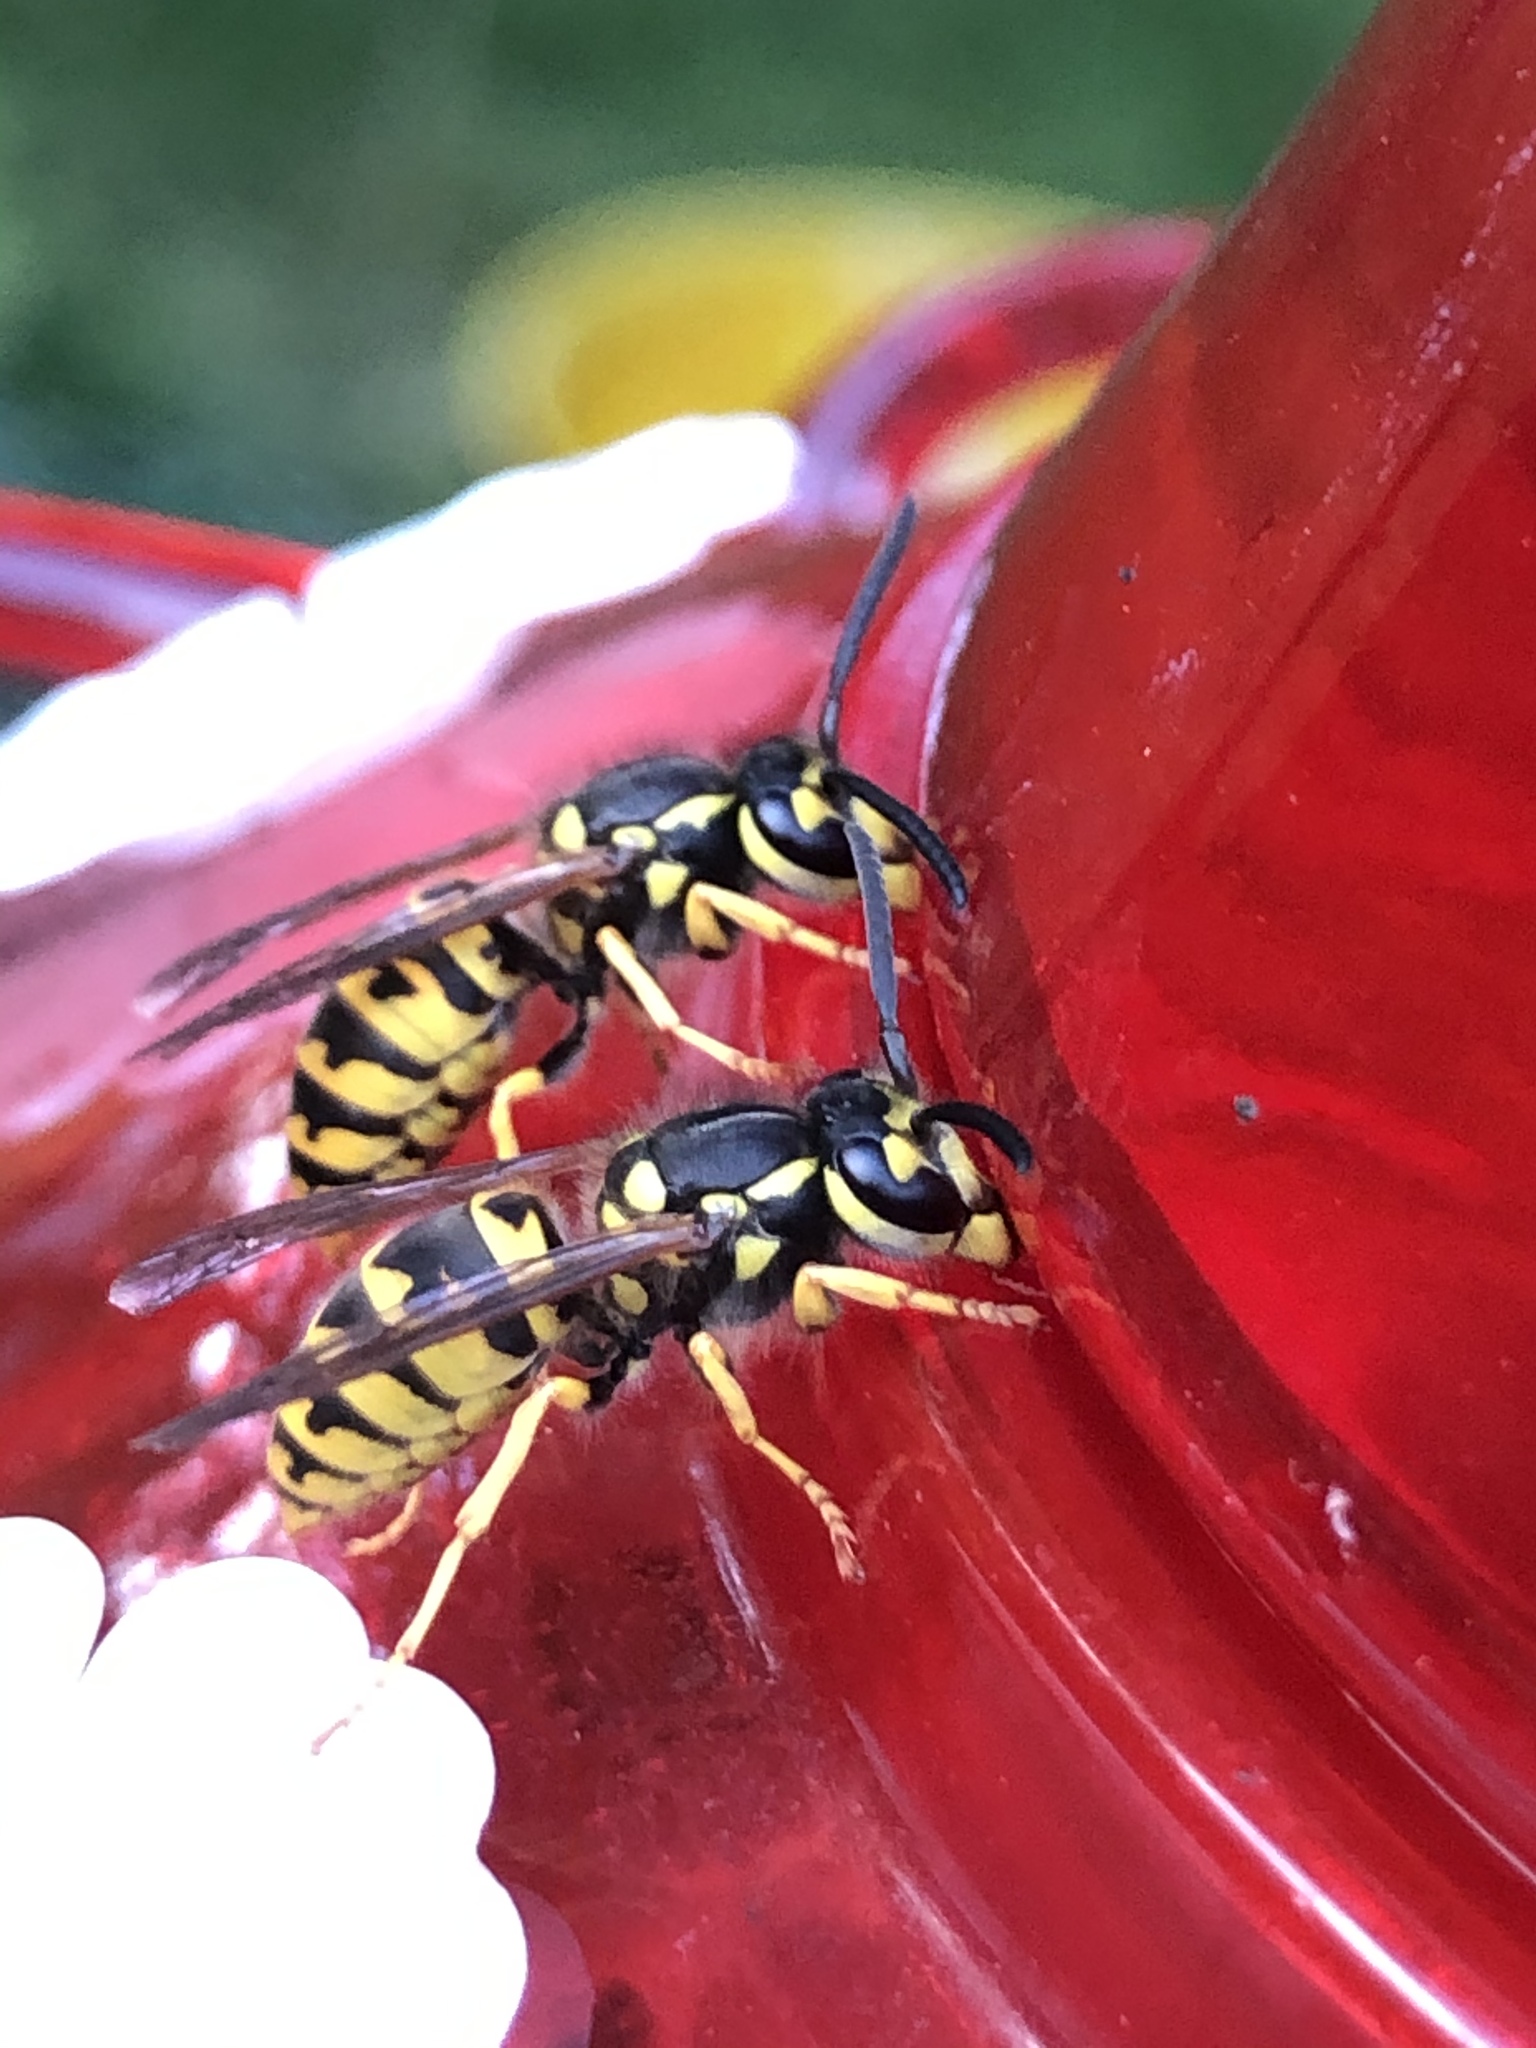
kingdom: Animalia
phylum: Arthropoda
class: Insecta
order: Hymenoptera
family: Vespidae
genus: Vespula
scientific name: Vespula germanica
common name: German wasp
